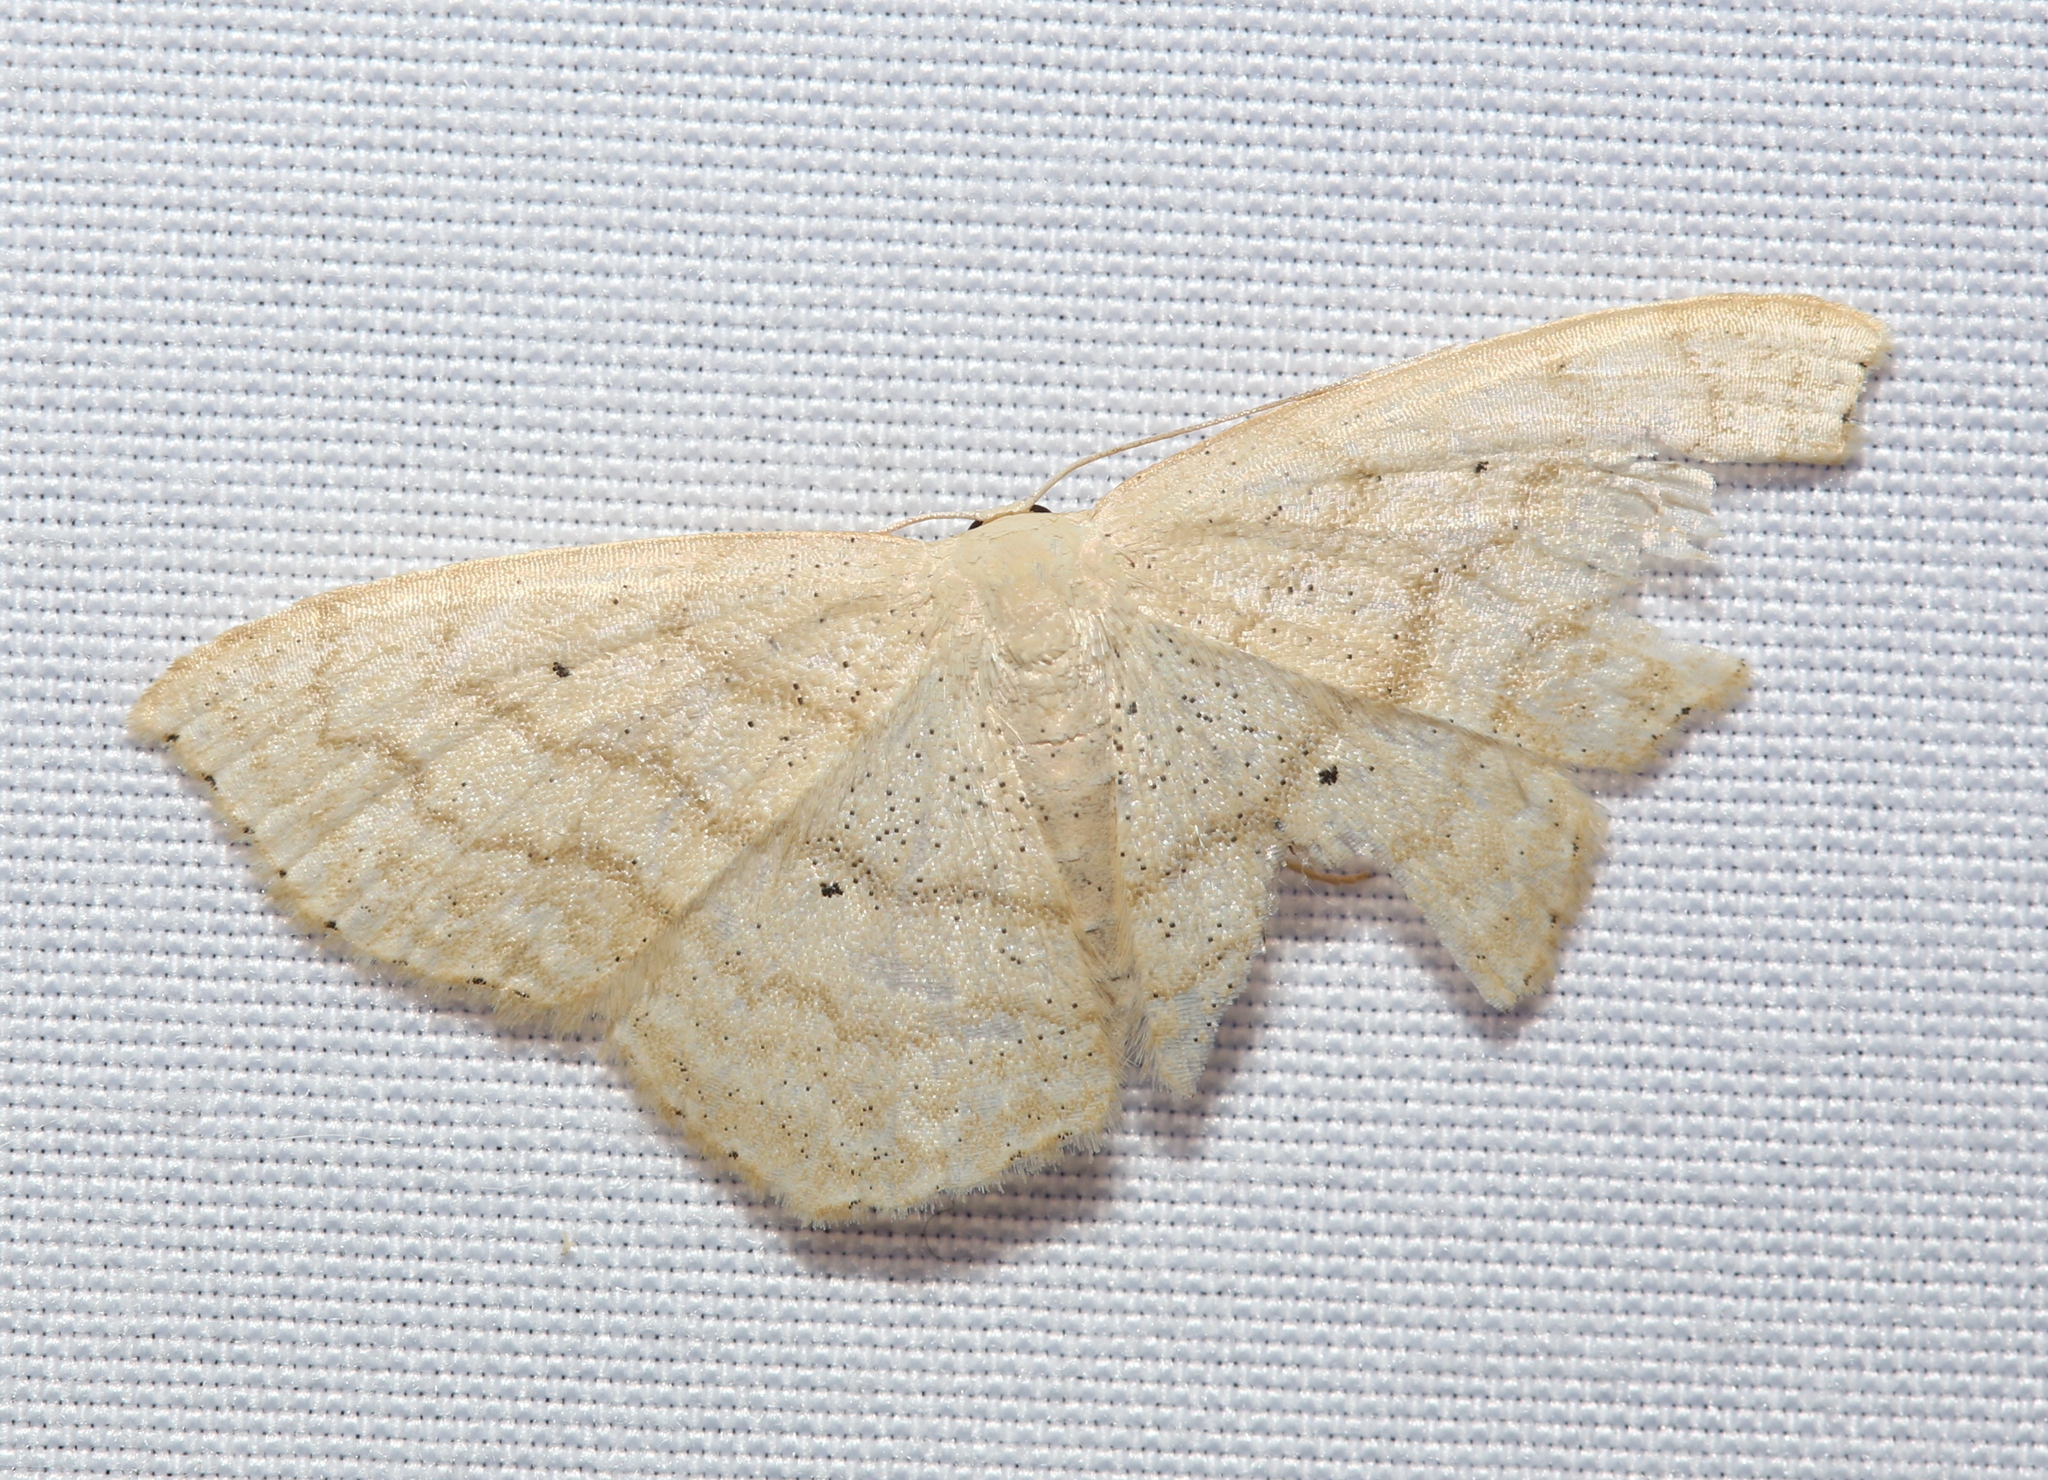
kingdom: Animalia
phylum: Arthropoda
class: Insecta
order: Lepidoptera
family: Geometridae
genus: Scopula
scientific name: Scopula limboundata
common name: Large lace border
